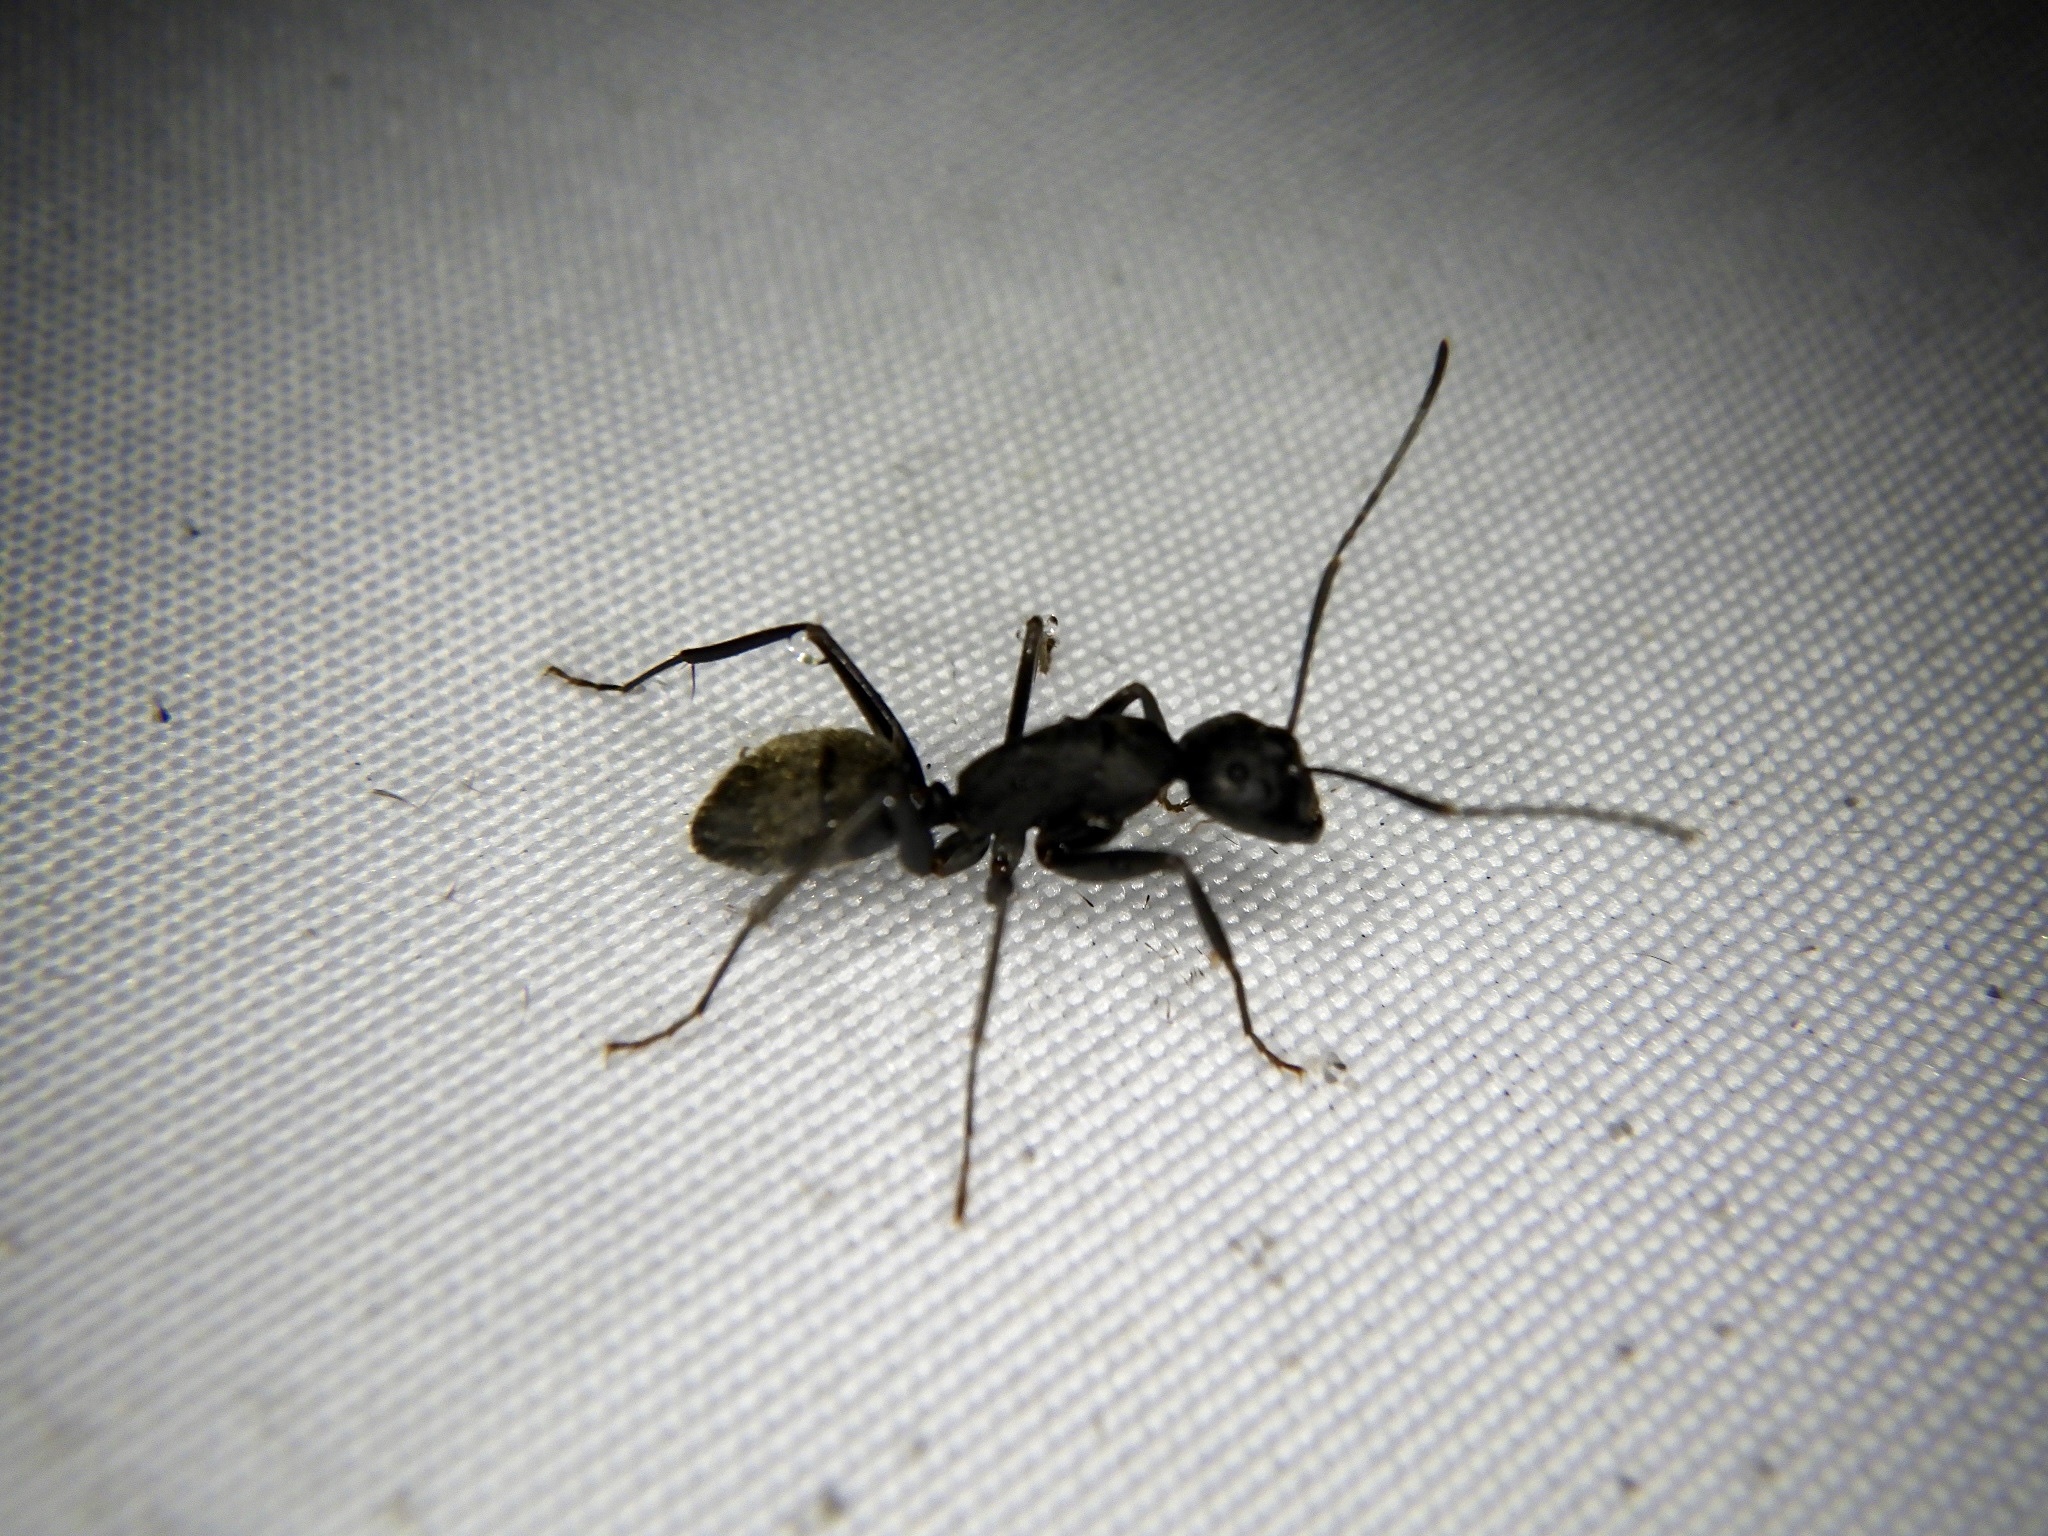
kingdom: Animalia
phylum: Arthropoda
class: Insecta
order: Hymenoptera
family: Formicidae
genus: Camponotus
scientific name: Camponotus japonicus
